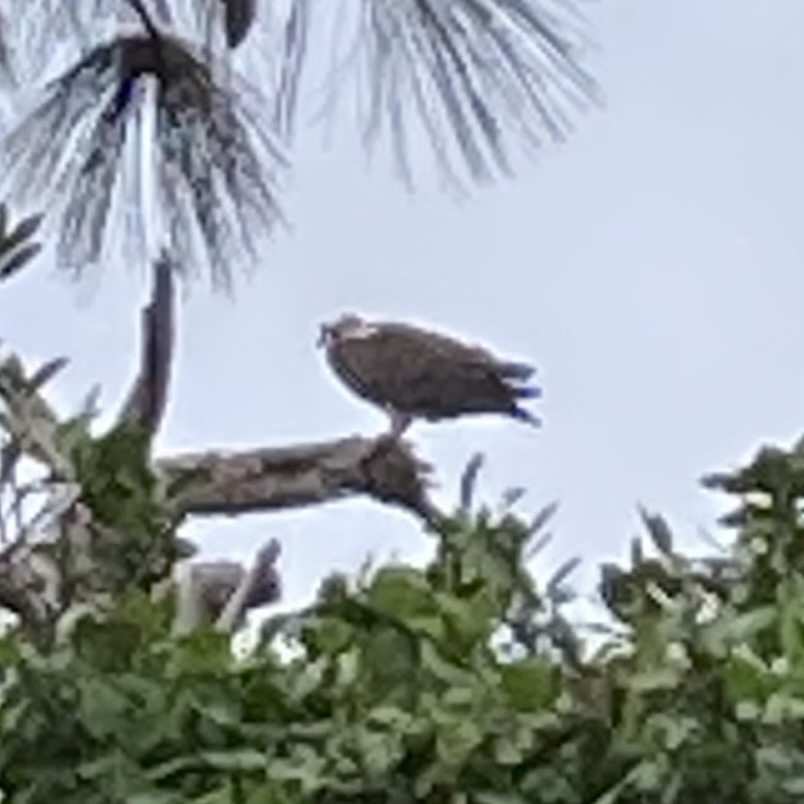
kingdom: Animalia
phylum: Chordata
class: Aves
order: Accipitriformes
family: Pandionidae
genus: Pandion
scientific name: Pandion haliaetus
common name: Osprey
